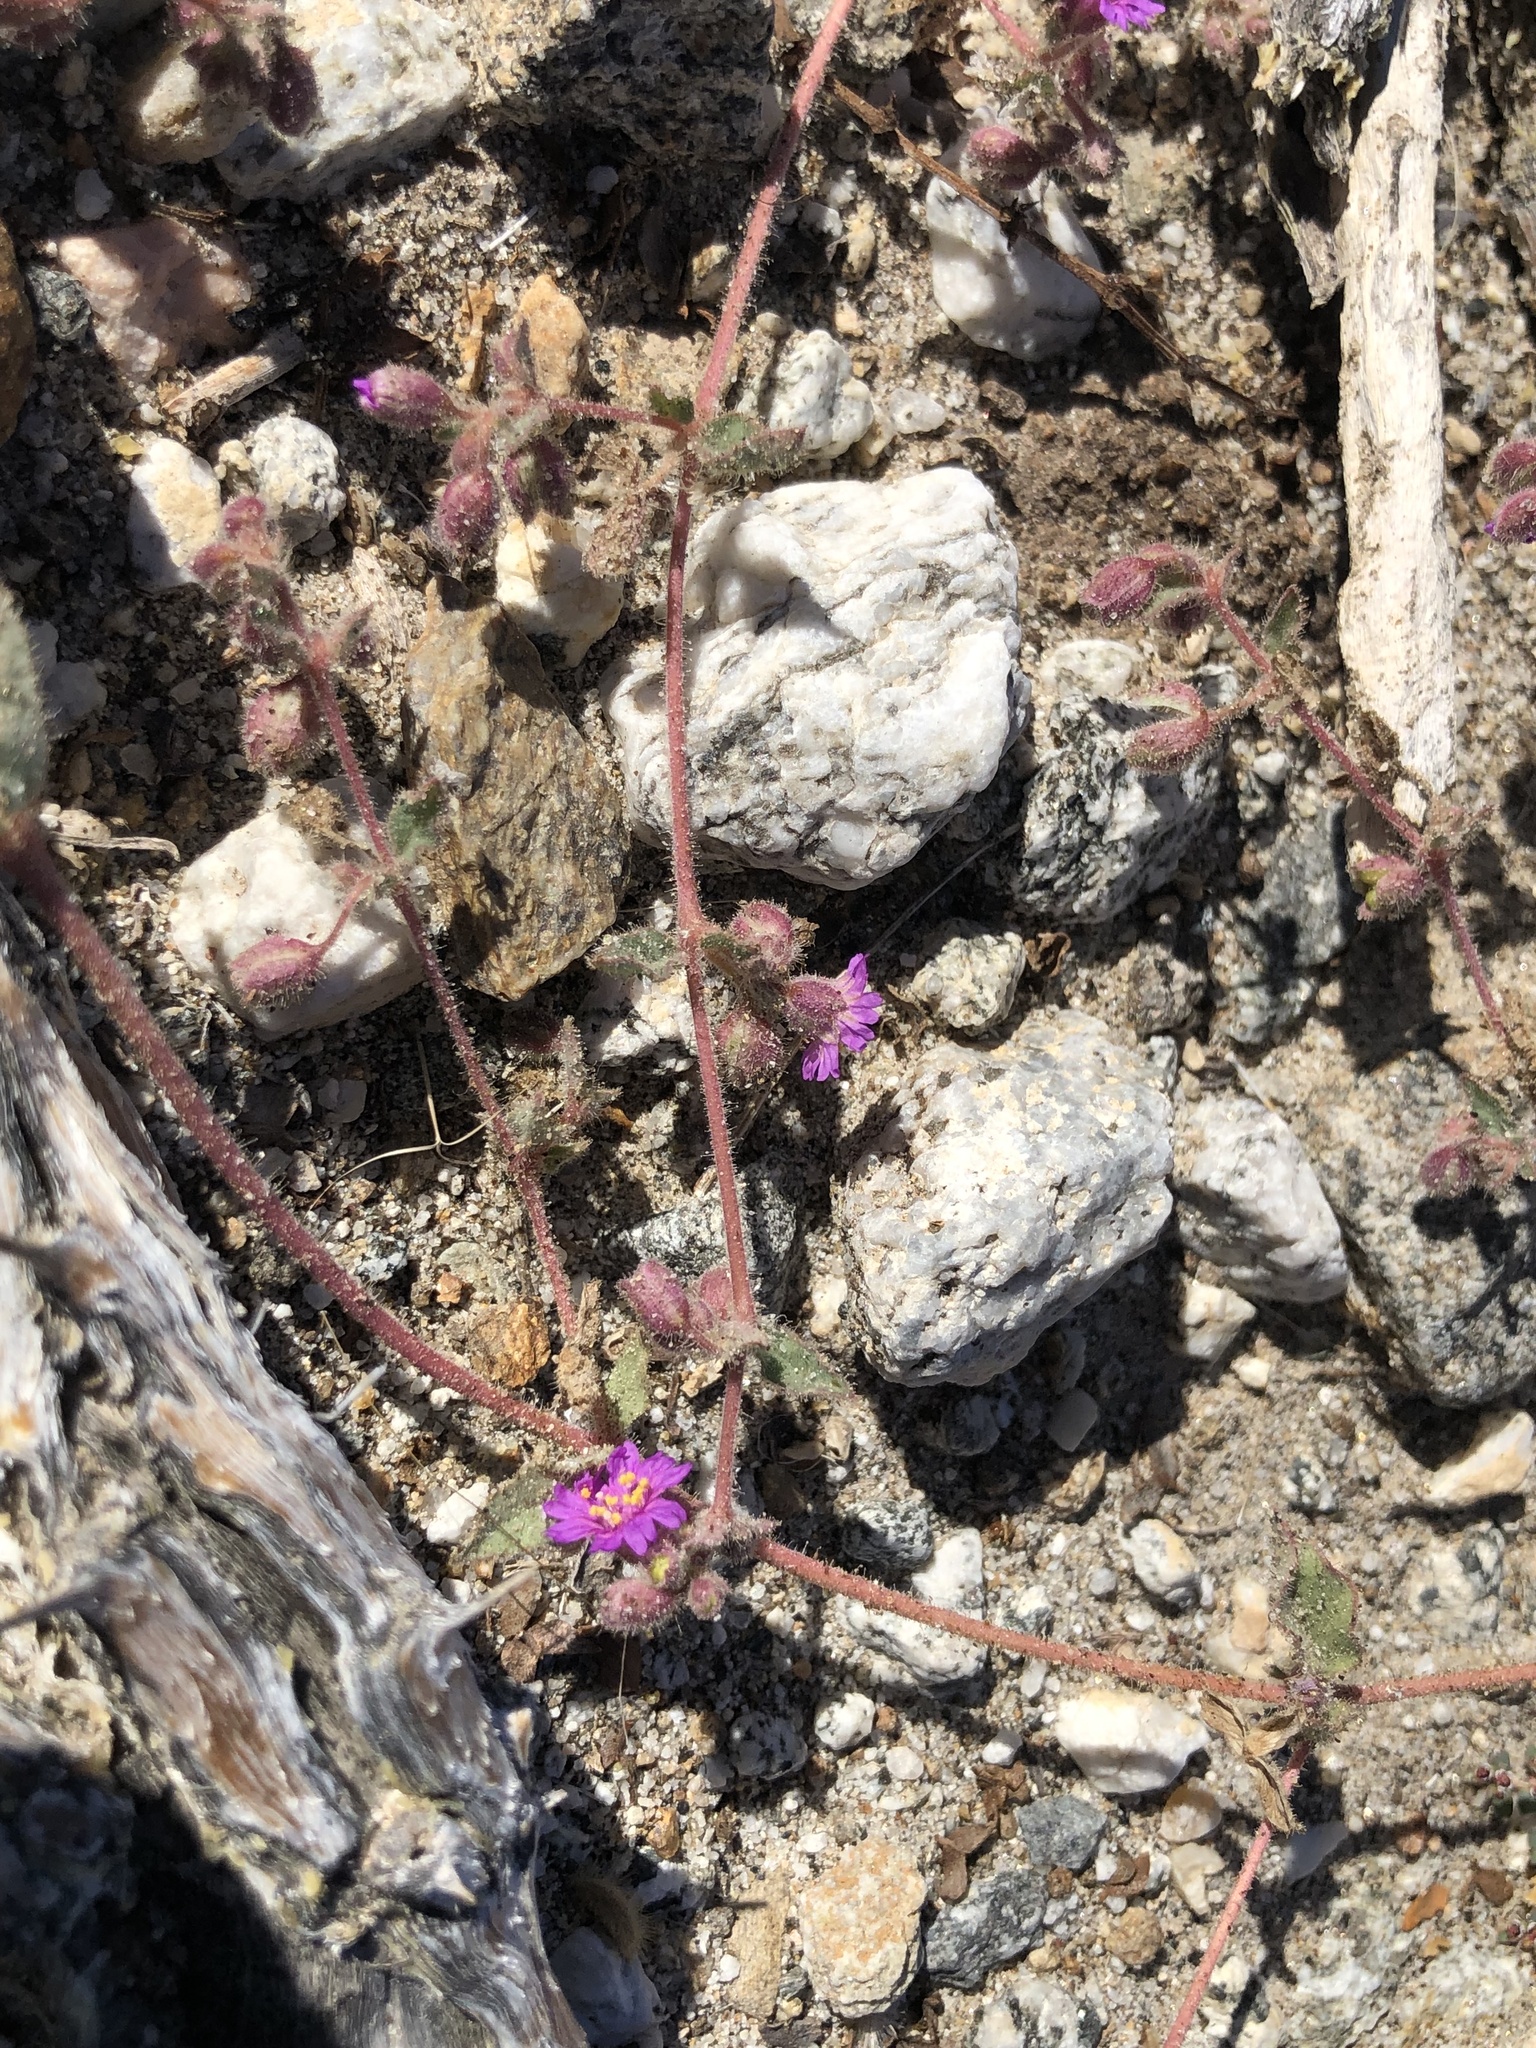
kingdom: Plantae
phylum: Tracheophyta
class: Magnoliopsida
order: Caryophyllales
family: Nyctaginaceae
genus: Allionia
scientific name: Allionia incarnata
